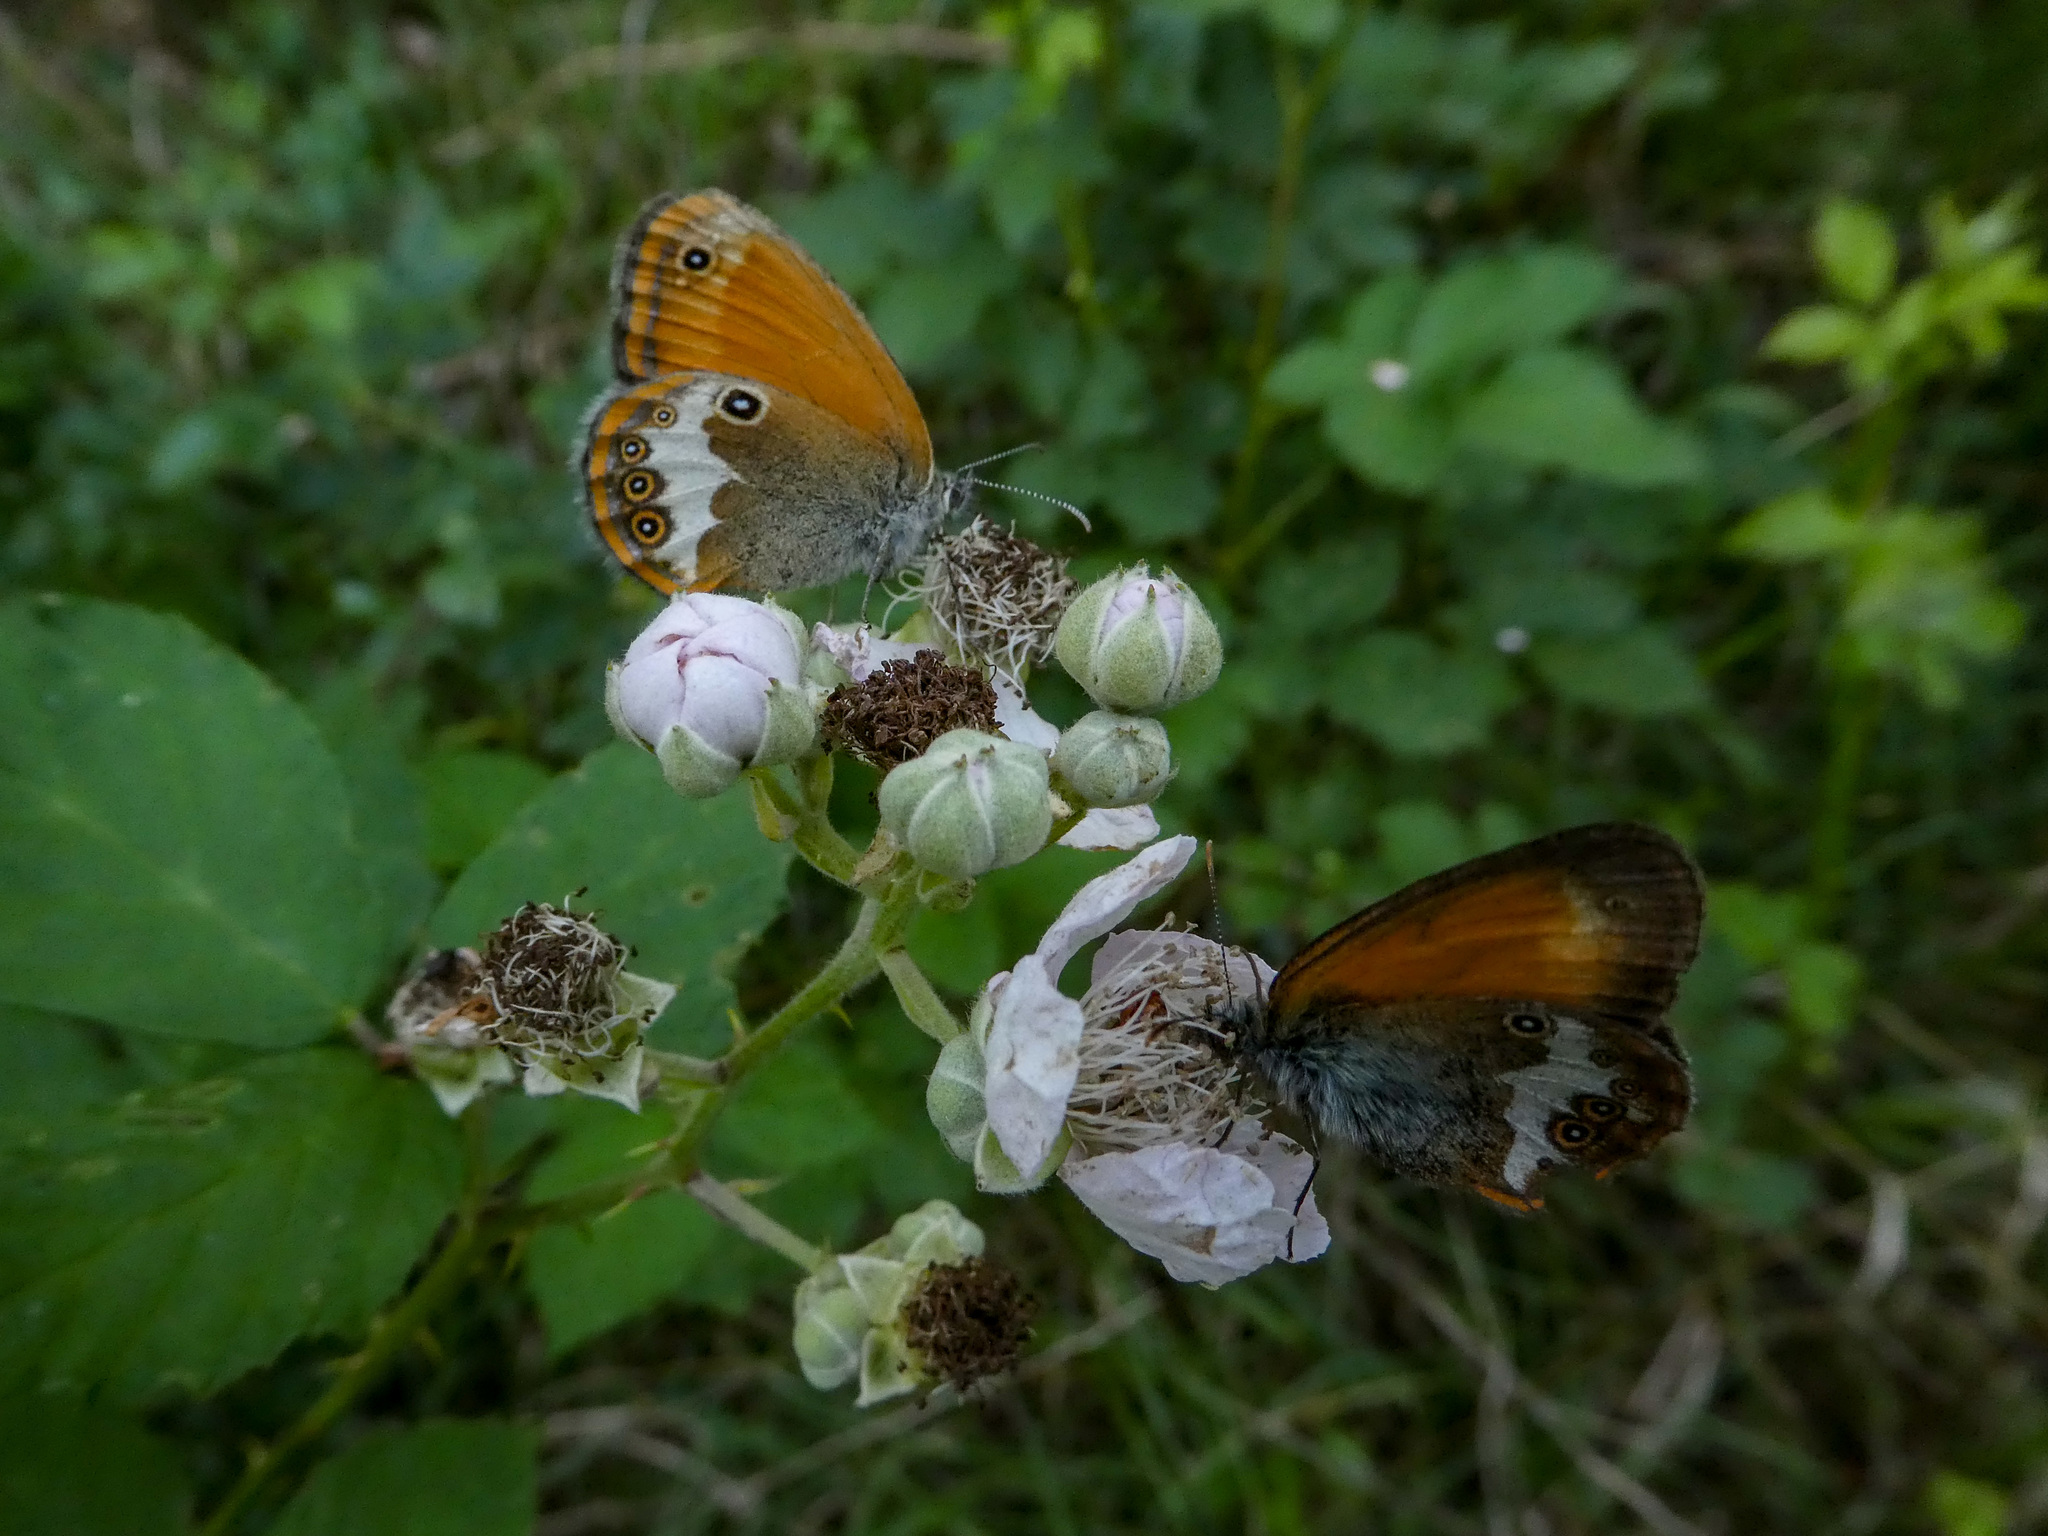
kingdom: Animalia
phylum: Arthropoda
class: Insecta
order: Lepidoptera
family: Nymphalidae
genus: Coenonympha
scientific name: Coenonympha arcania
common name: Pearly heath
